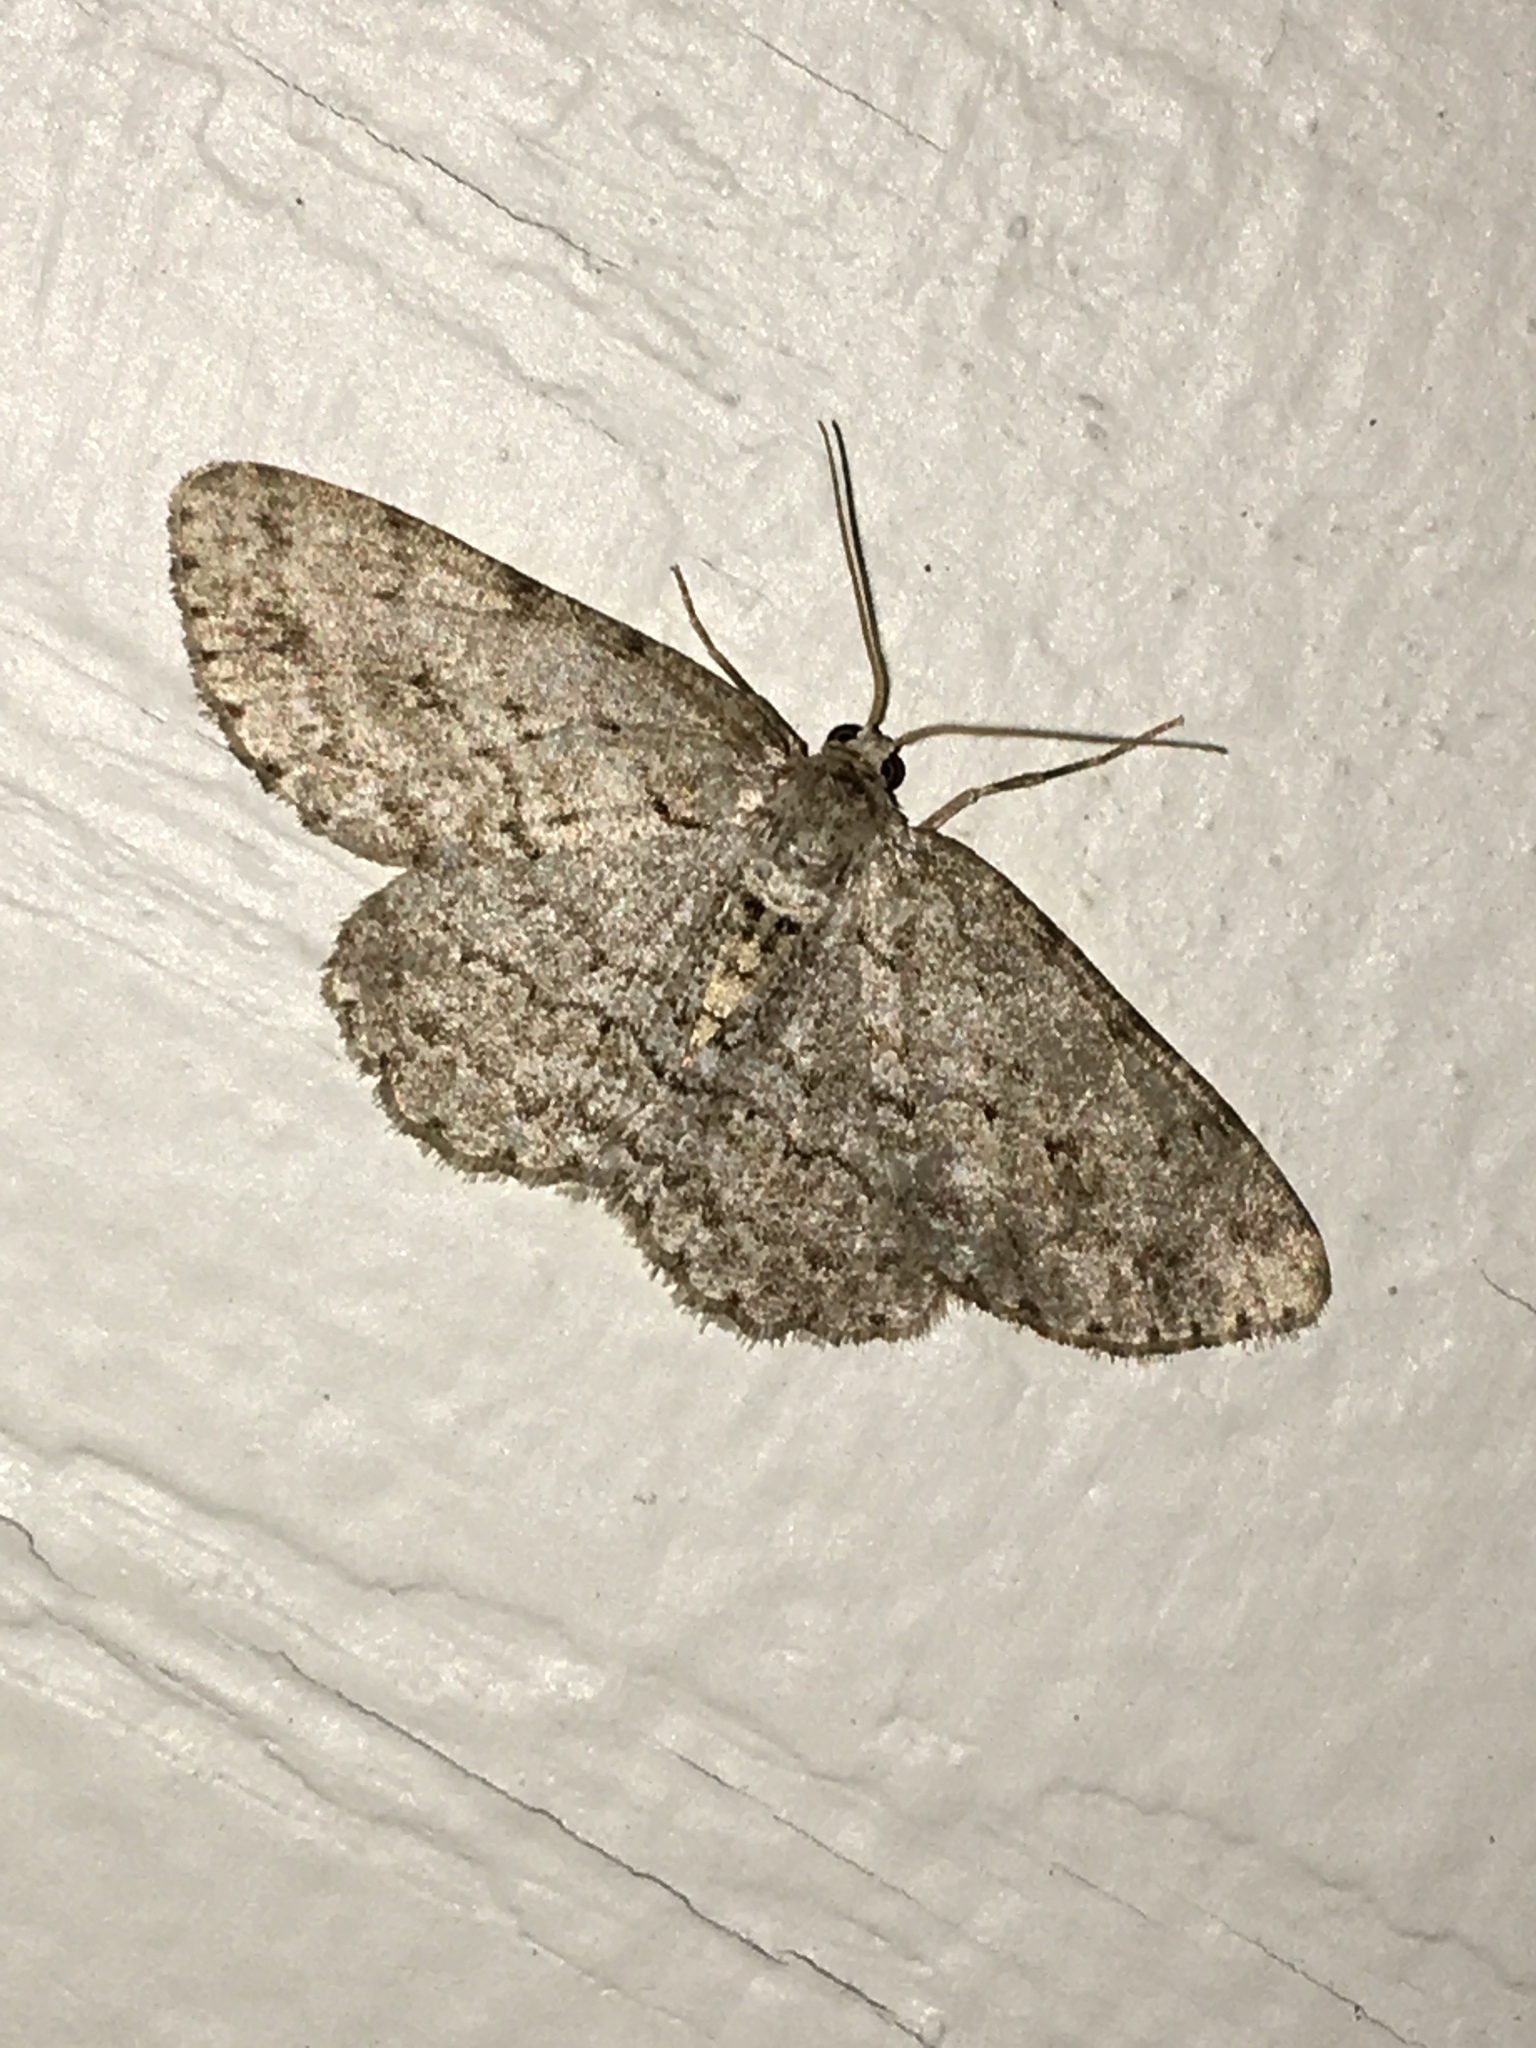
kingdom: Animalia
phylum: Arthropoda
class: Insecta
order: Lepidoptera
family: Geometridae
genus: Protoboarmia
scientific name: Protoboarmia porcelaria
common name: Porcelain gray
